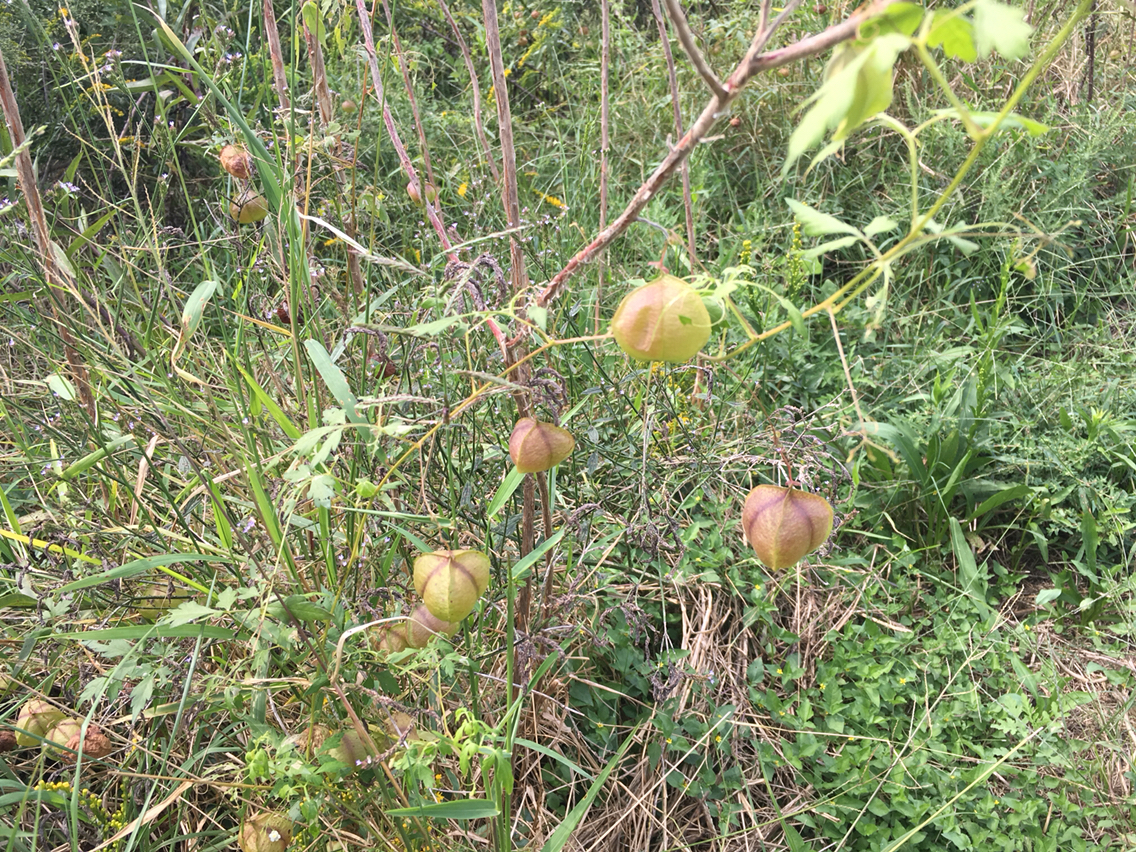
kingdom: Plantae
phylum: Tracheophyta
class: Magnoliopsida
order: Sapindales
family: Sapindaceae
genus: Cardiospermum
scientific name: Cardiospermum halicacabum
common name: Balloon vine
